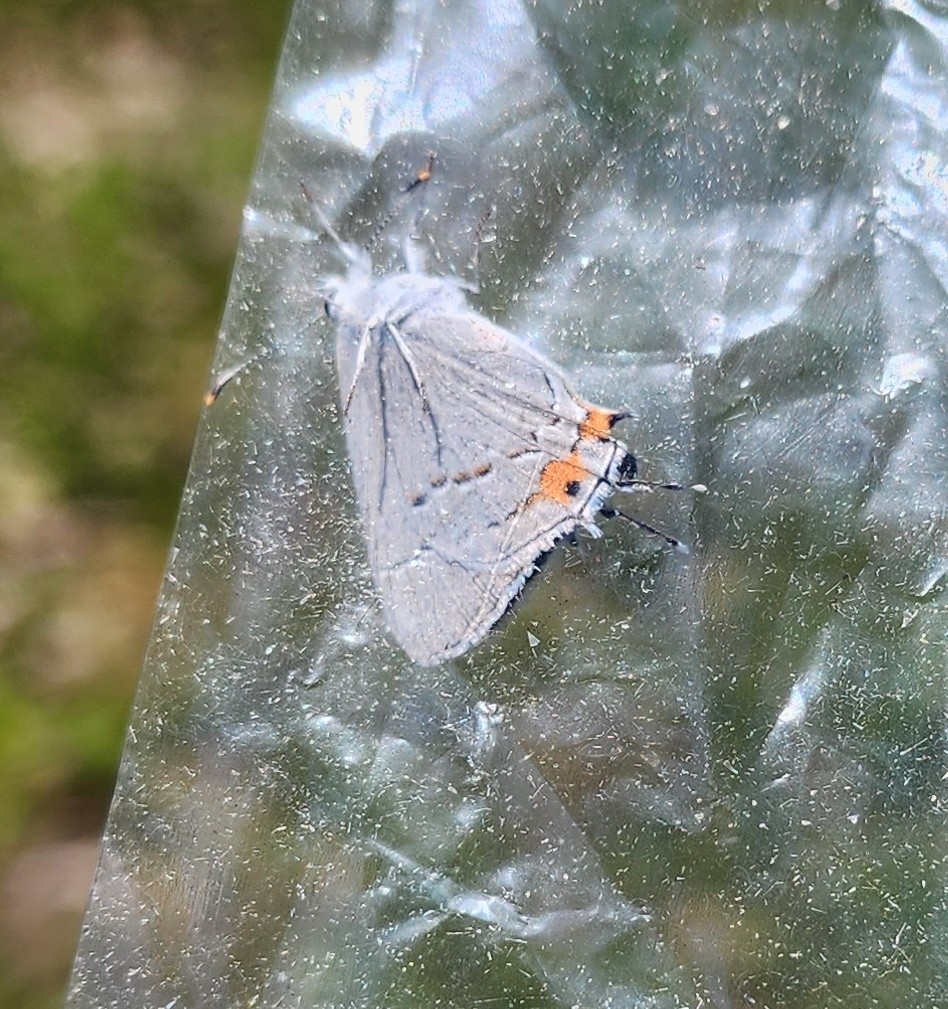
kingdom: Animalia
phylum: Arthropoda
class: Insecta
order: Lepidoptera
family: Lycaenidae
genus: Strymon
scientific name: Strymon melinus
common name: Gray hairstreak
